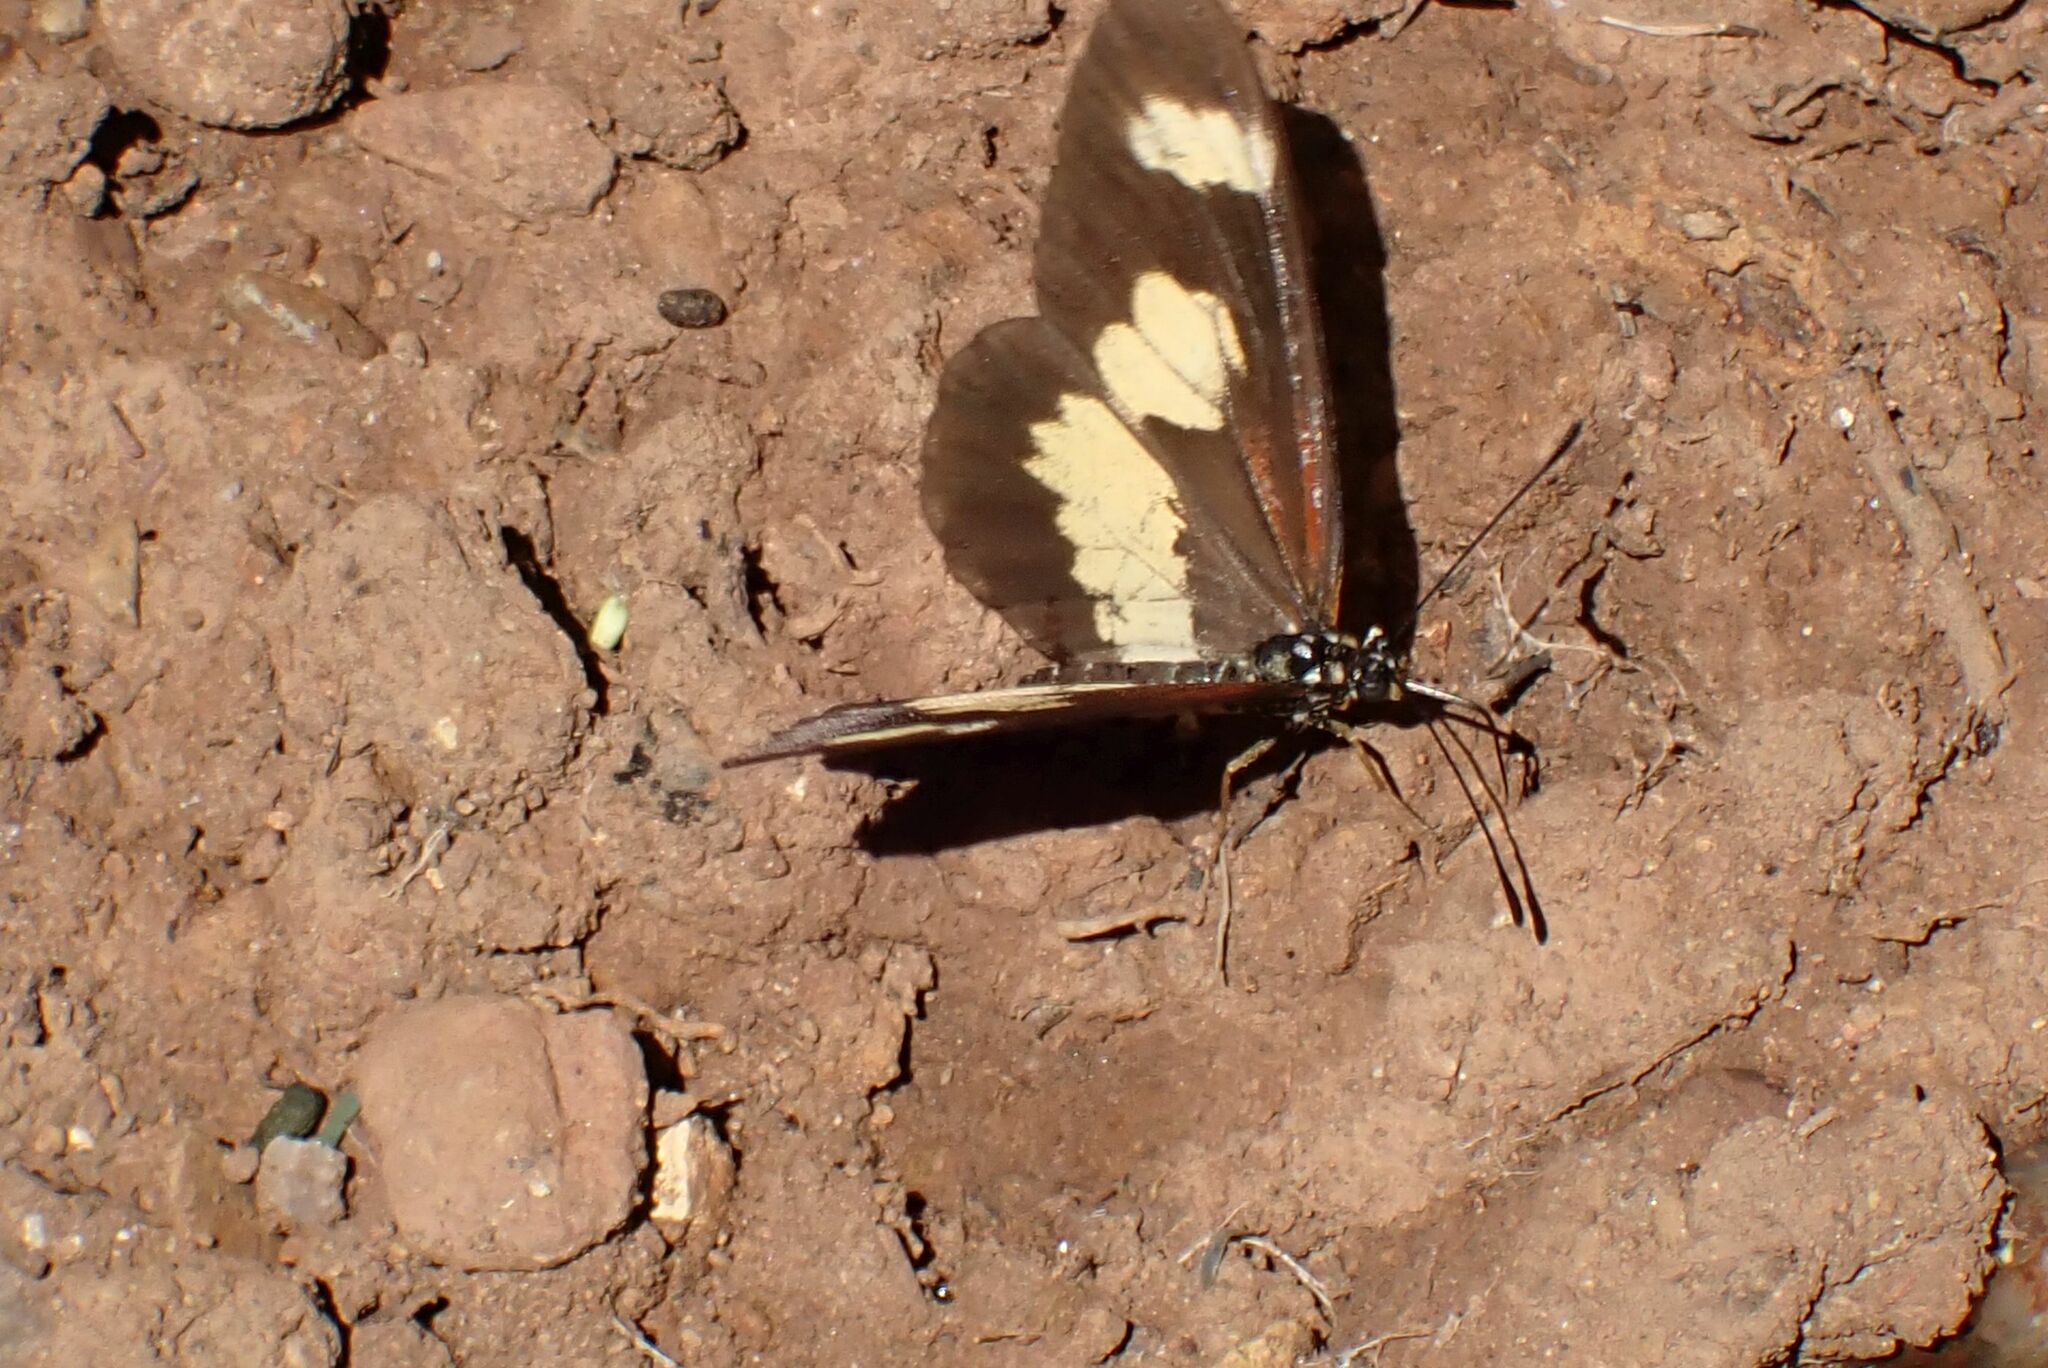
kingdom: Animalia
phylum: Arthropoda
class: Insecta
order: Lepidoptera
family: Nymphalidae
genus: Acraea
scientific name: Acraea cabira
